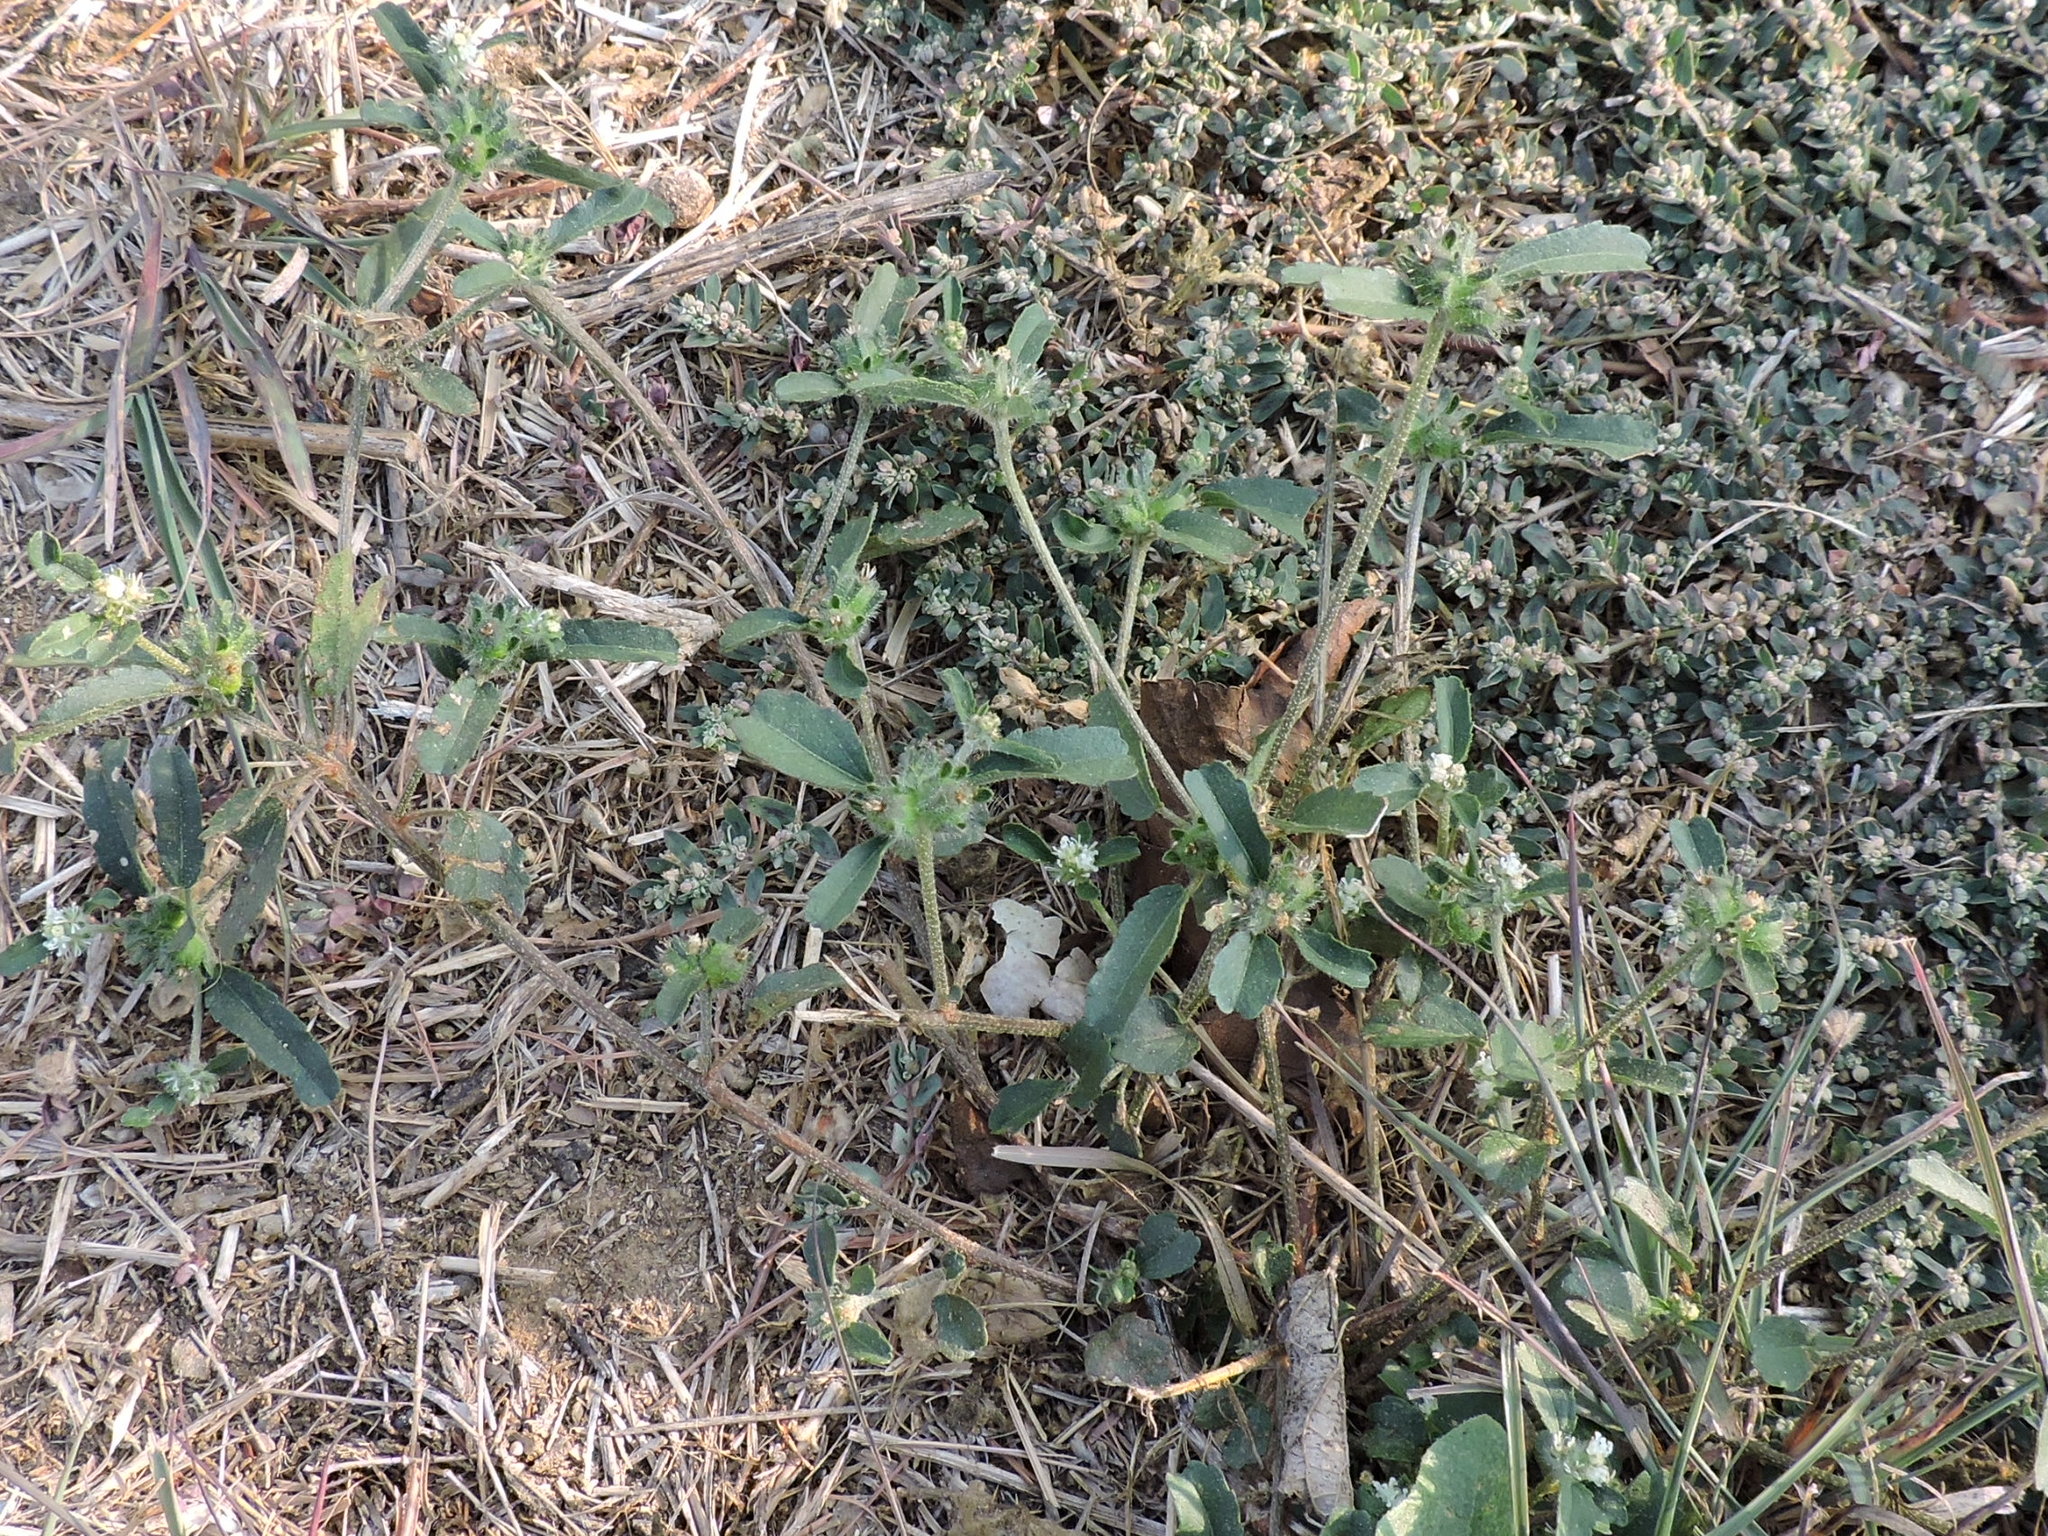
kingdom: Plantae
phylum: Tracheophyta
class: Magnoliopsida
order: Malpighiales
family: Euphorbiaceae
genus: Croton
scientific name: Croton glandulosus
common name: Tropic croton
